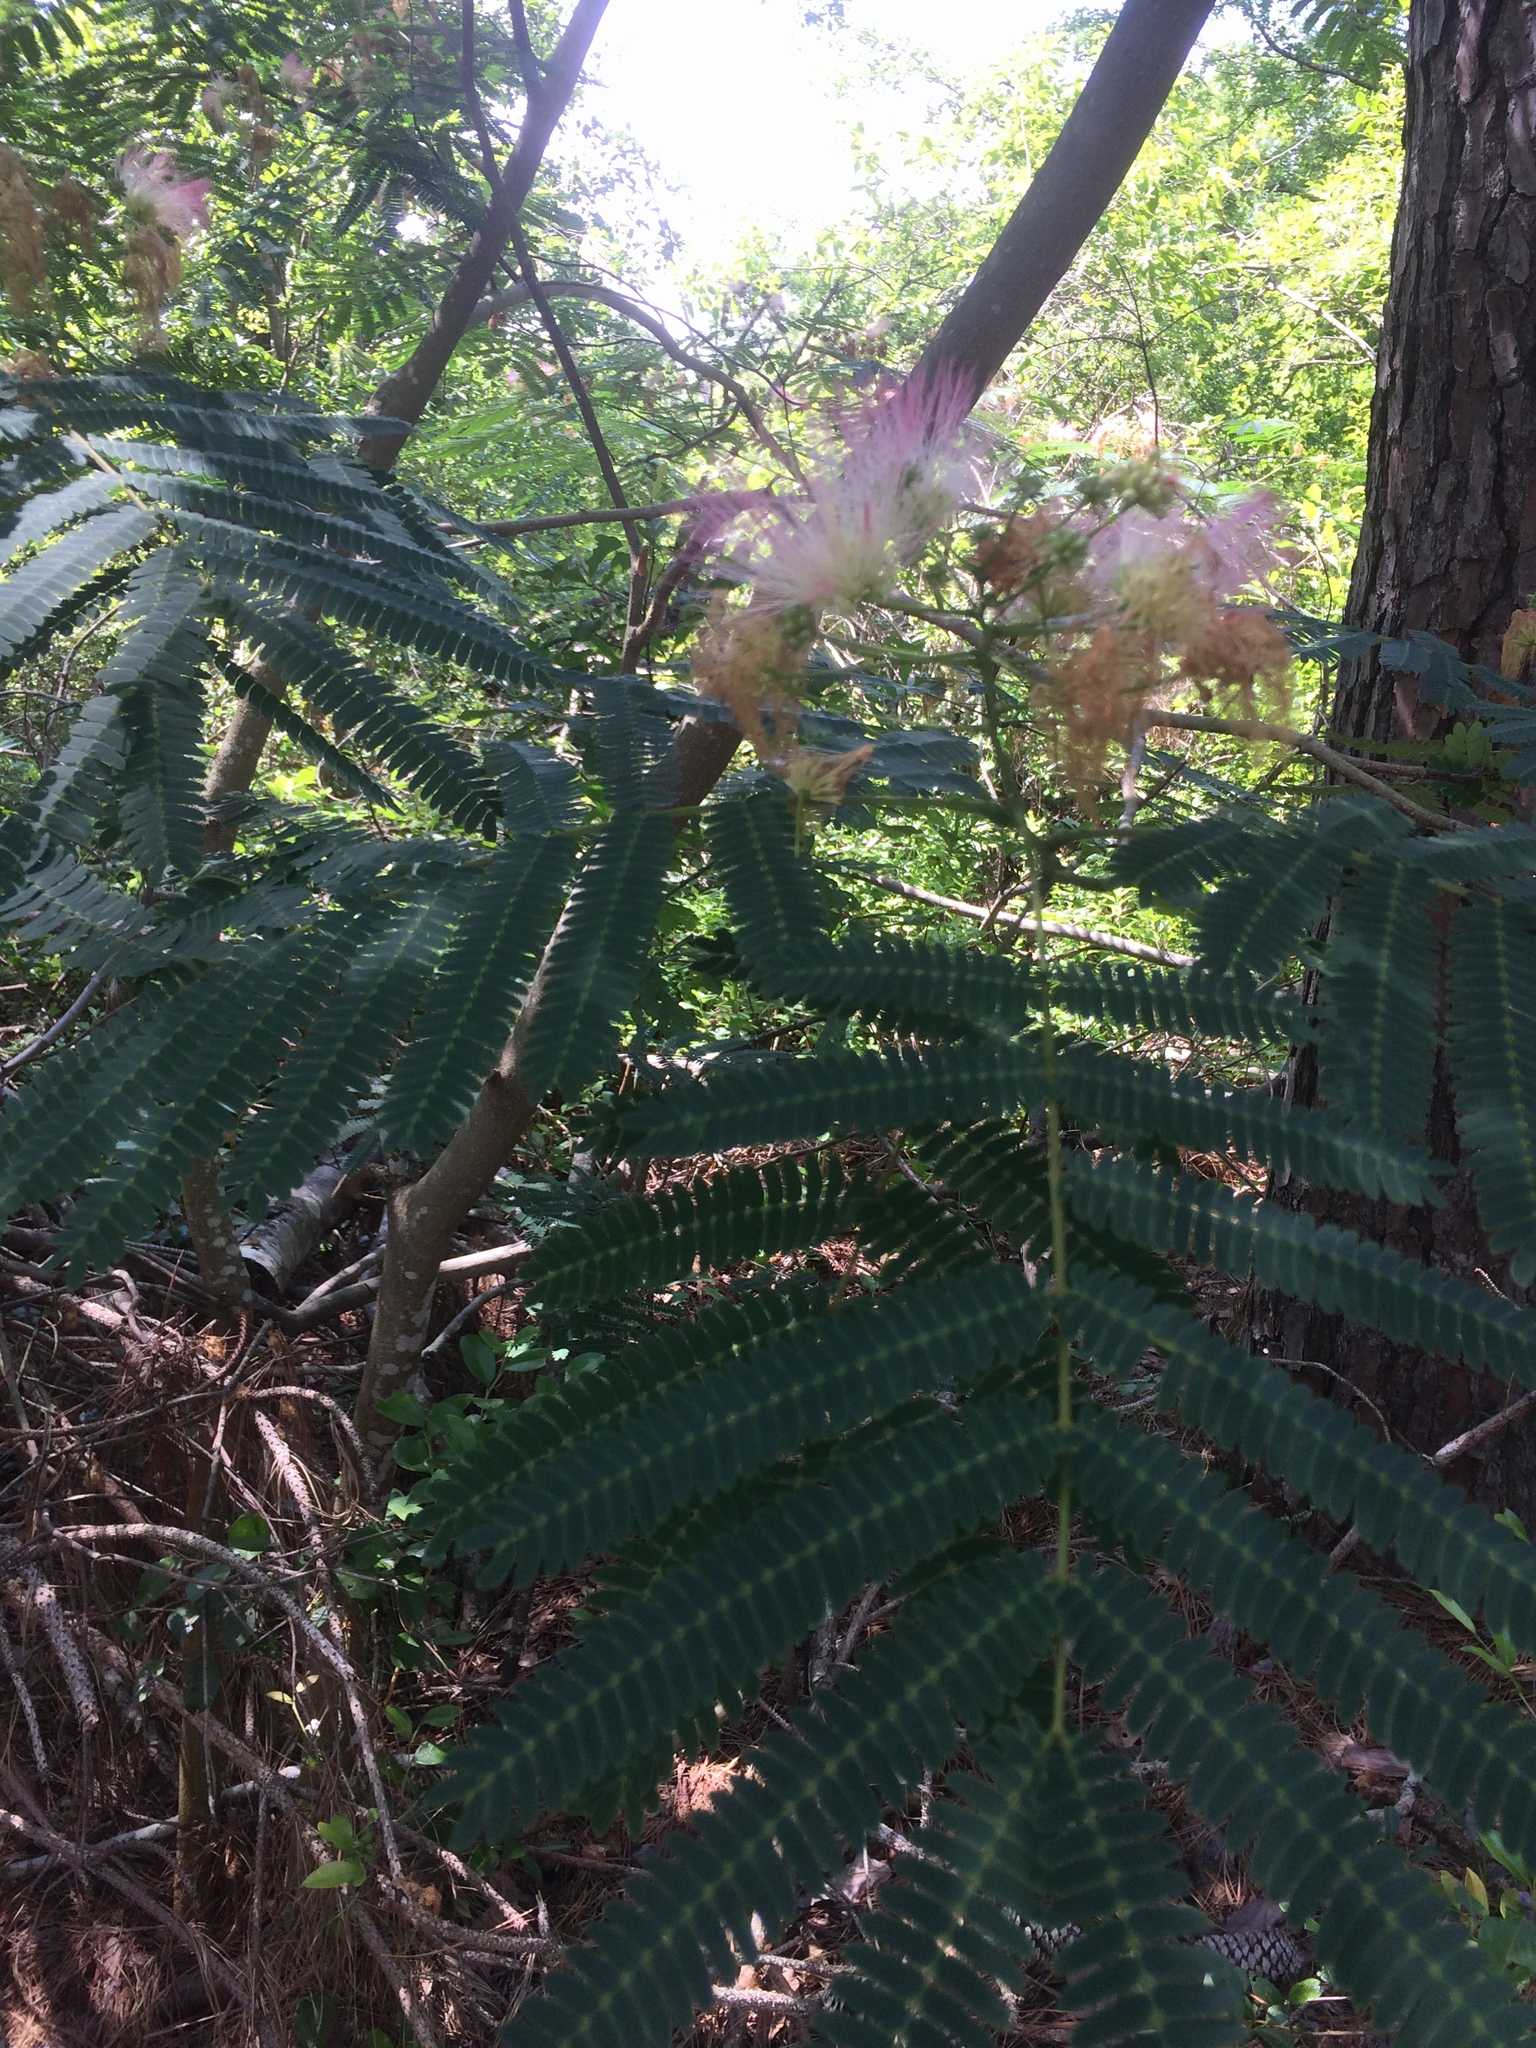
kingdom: Plantae
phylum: Tracheophyta
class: Magnoliopsida
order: Fabales
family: Fabaceae
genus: Albizia
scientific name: Albizia julibrissin
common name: Silktree
